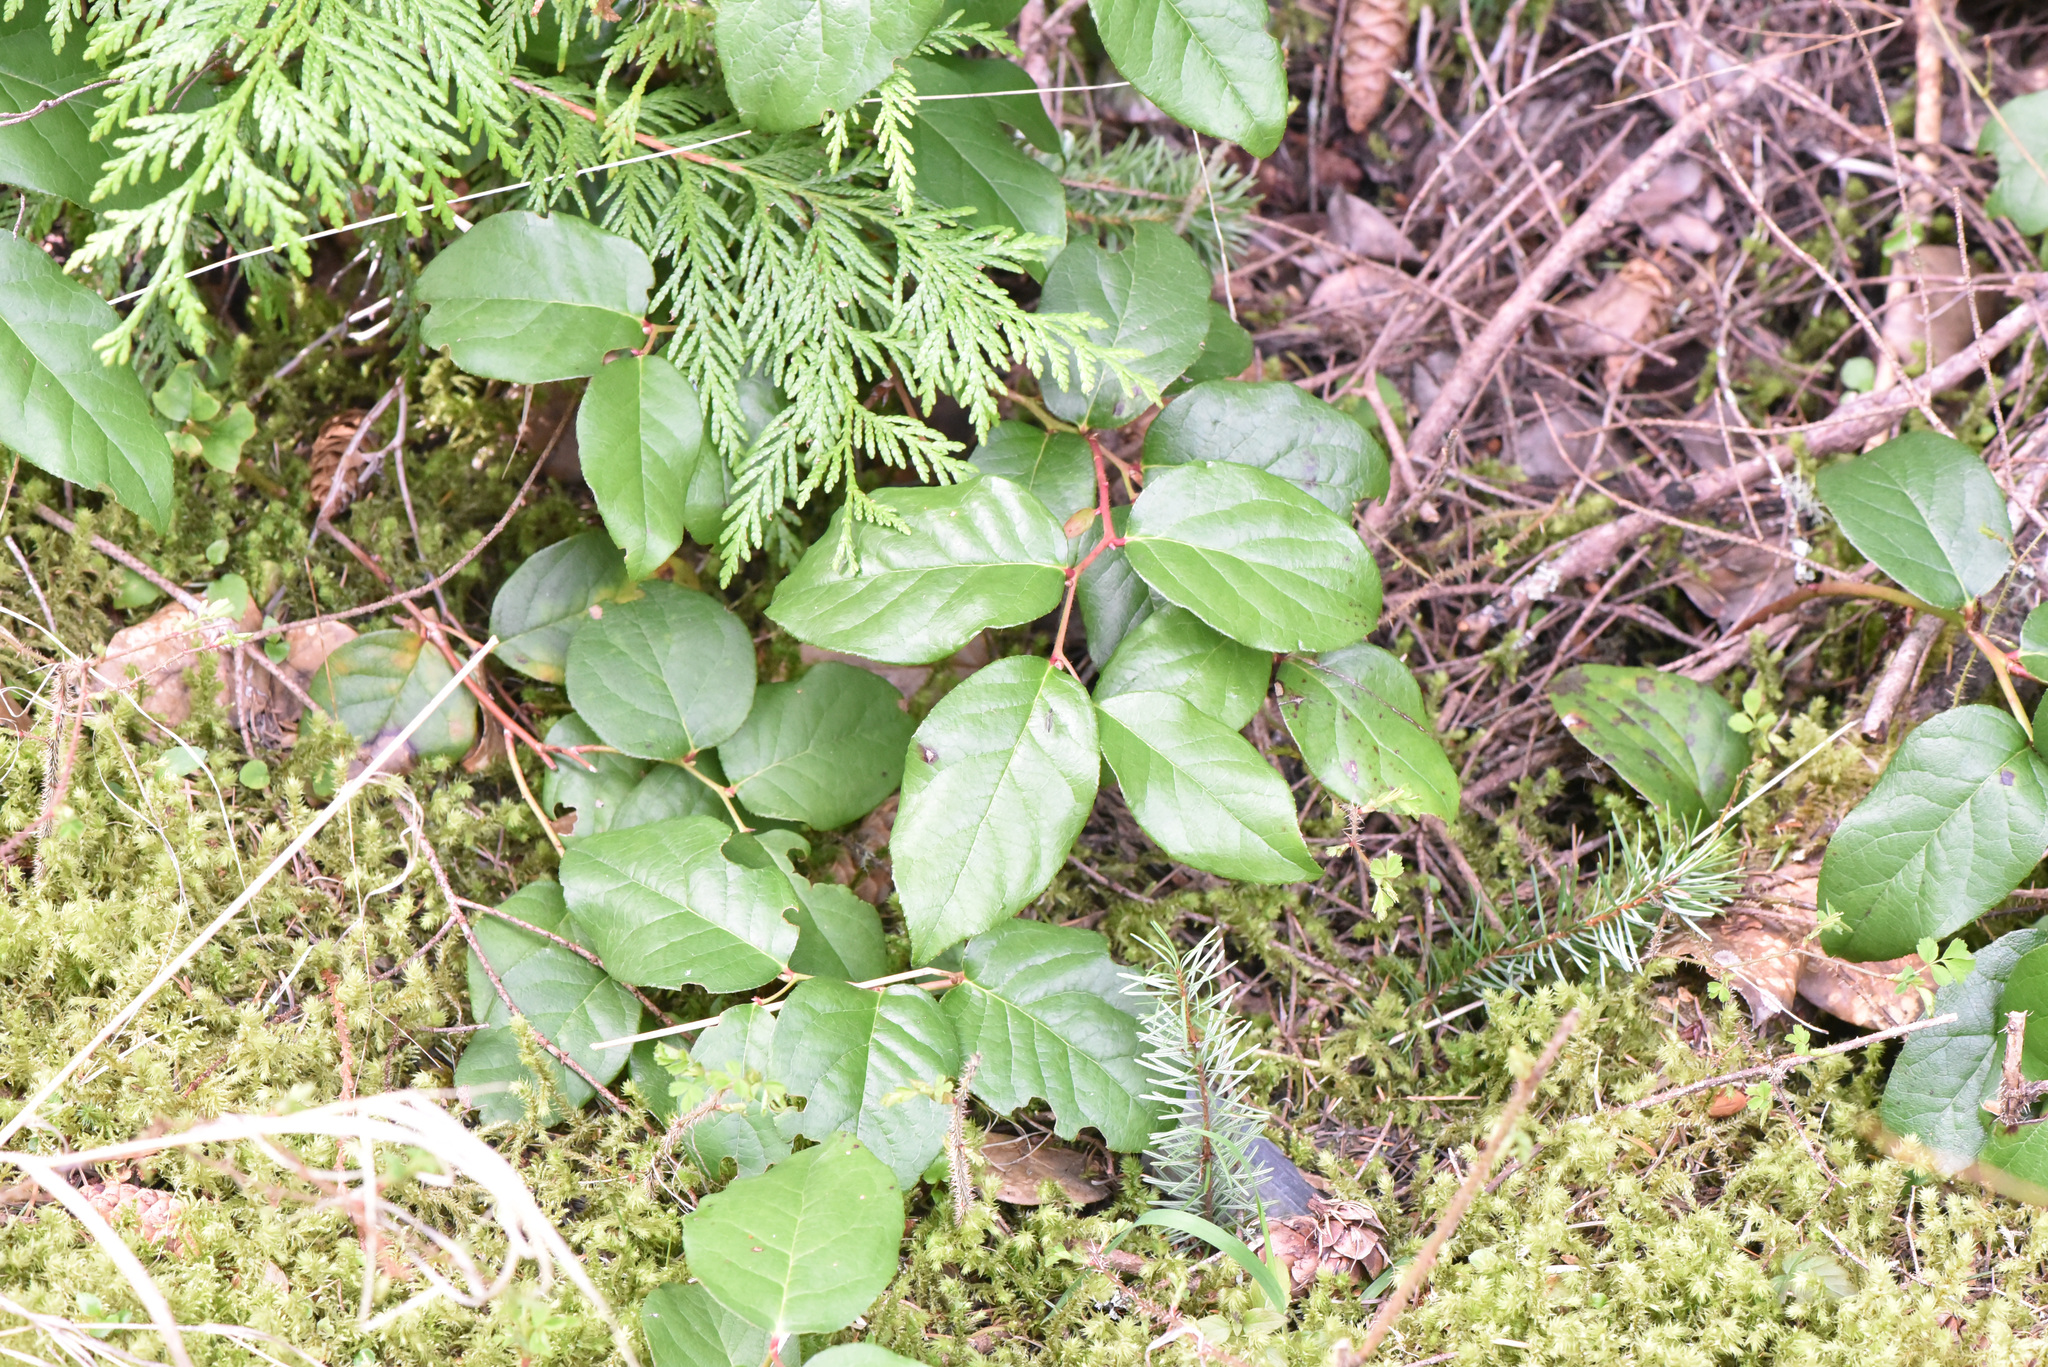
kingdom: Plantae
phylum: Tracheophyta
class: Pinopsida
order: Pinales
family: Cupressaceae
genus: Thuja
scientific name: Thuja plicata
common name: Western red-cedar
